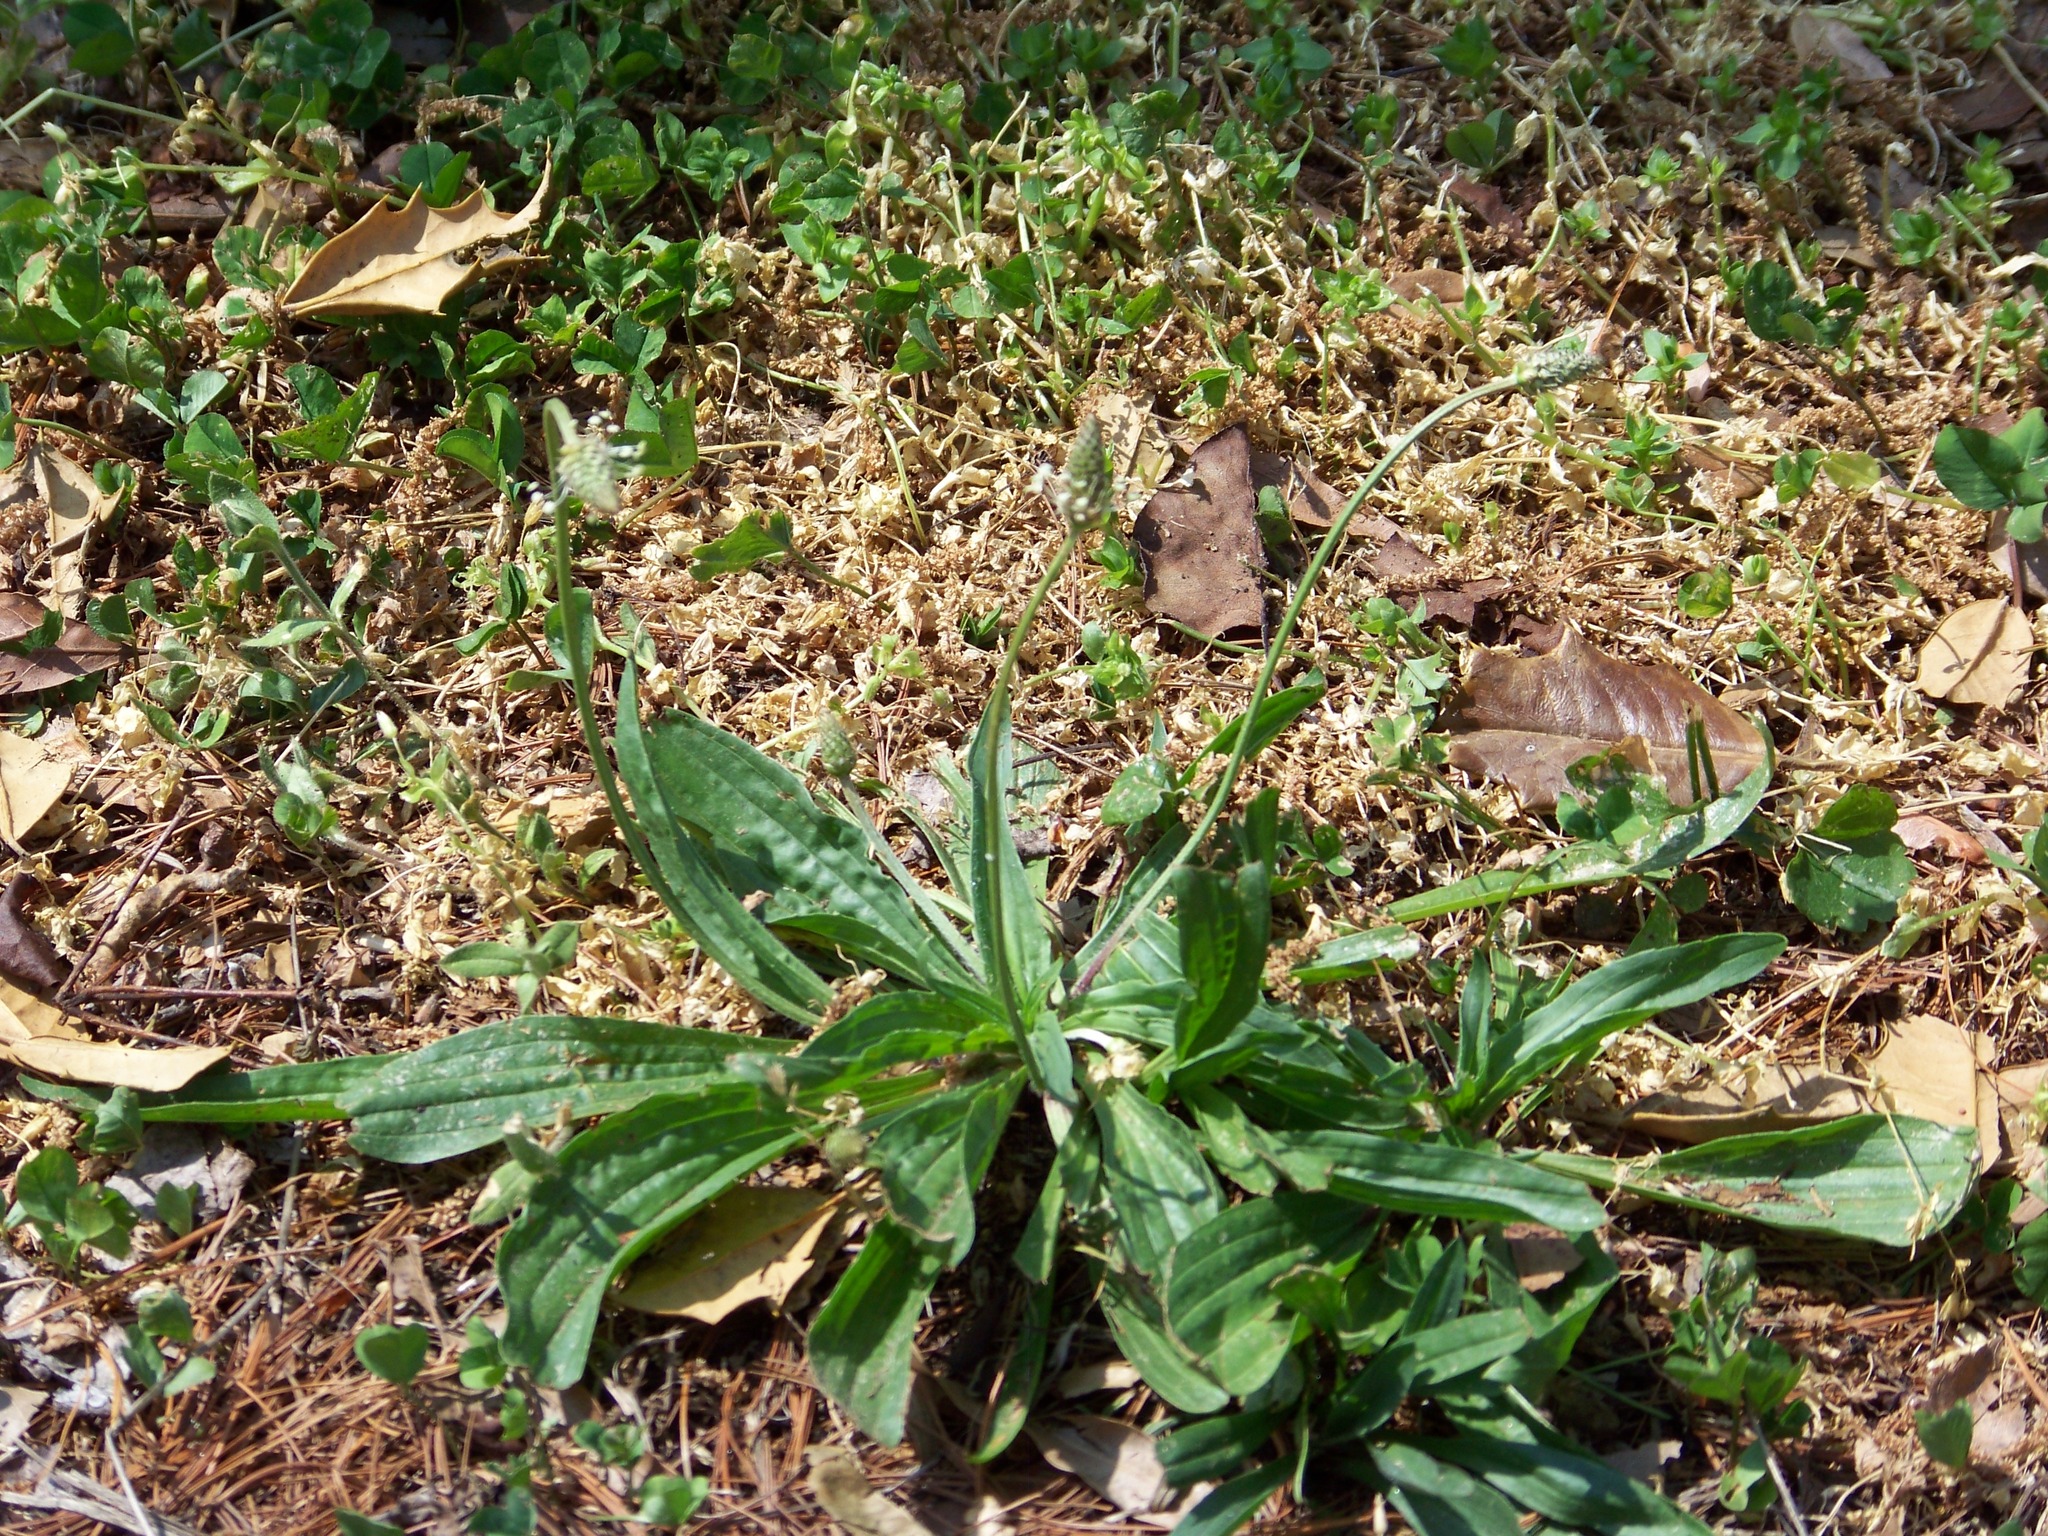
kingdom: Plantae
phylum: Tracheophyta
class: Magnoliopsida
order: Lamiales
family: Plantaginaceae
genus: Plantago
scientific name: Plantago lanceolata
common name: Ribwort plantain
